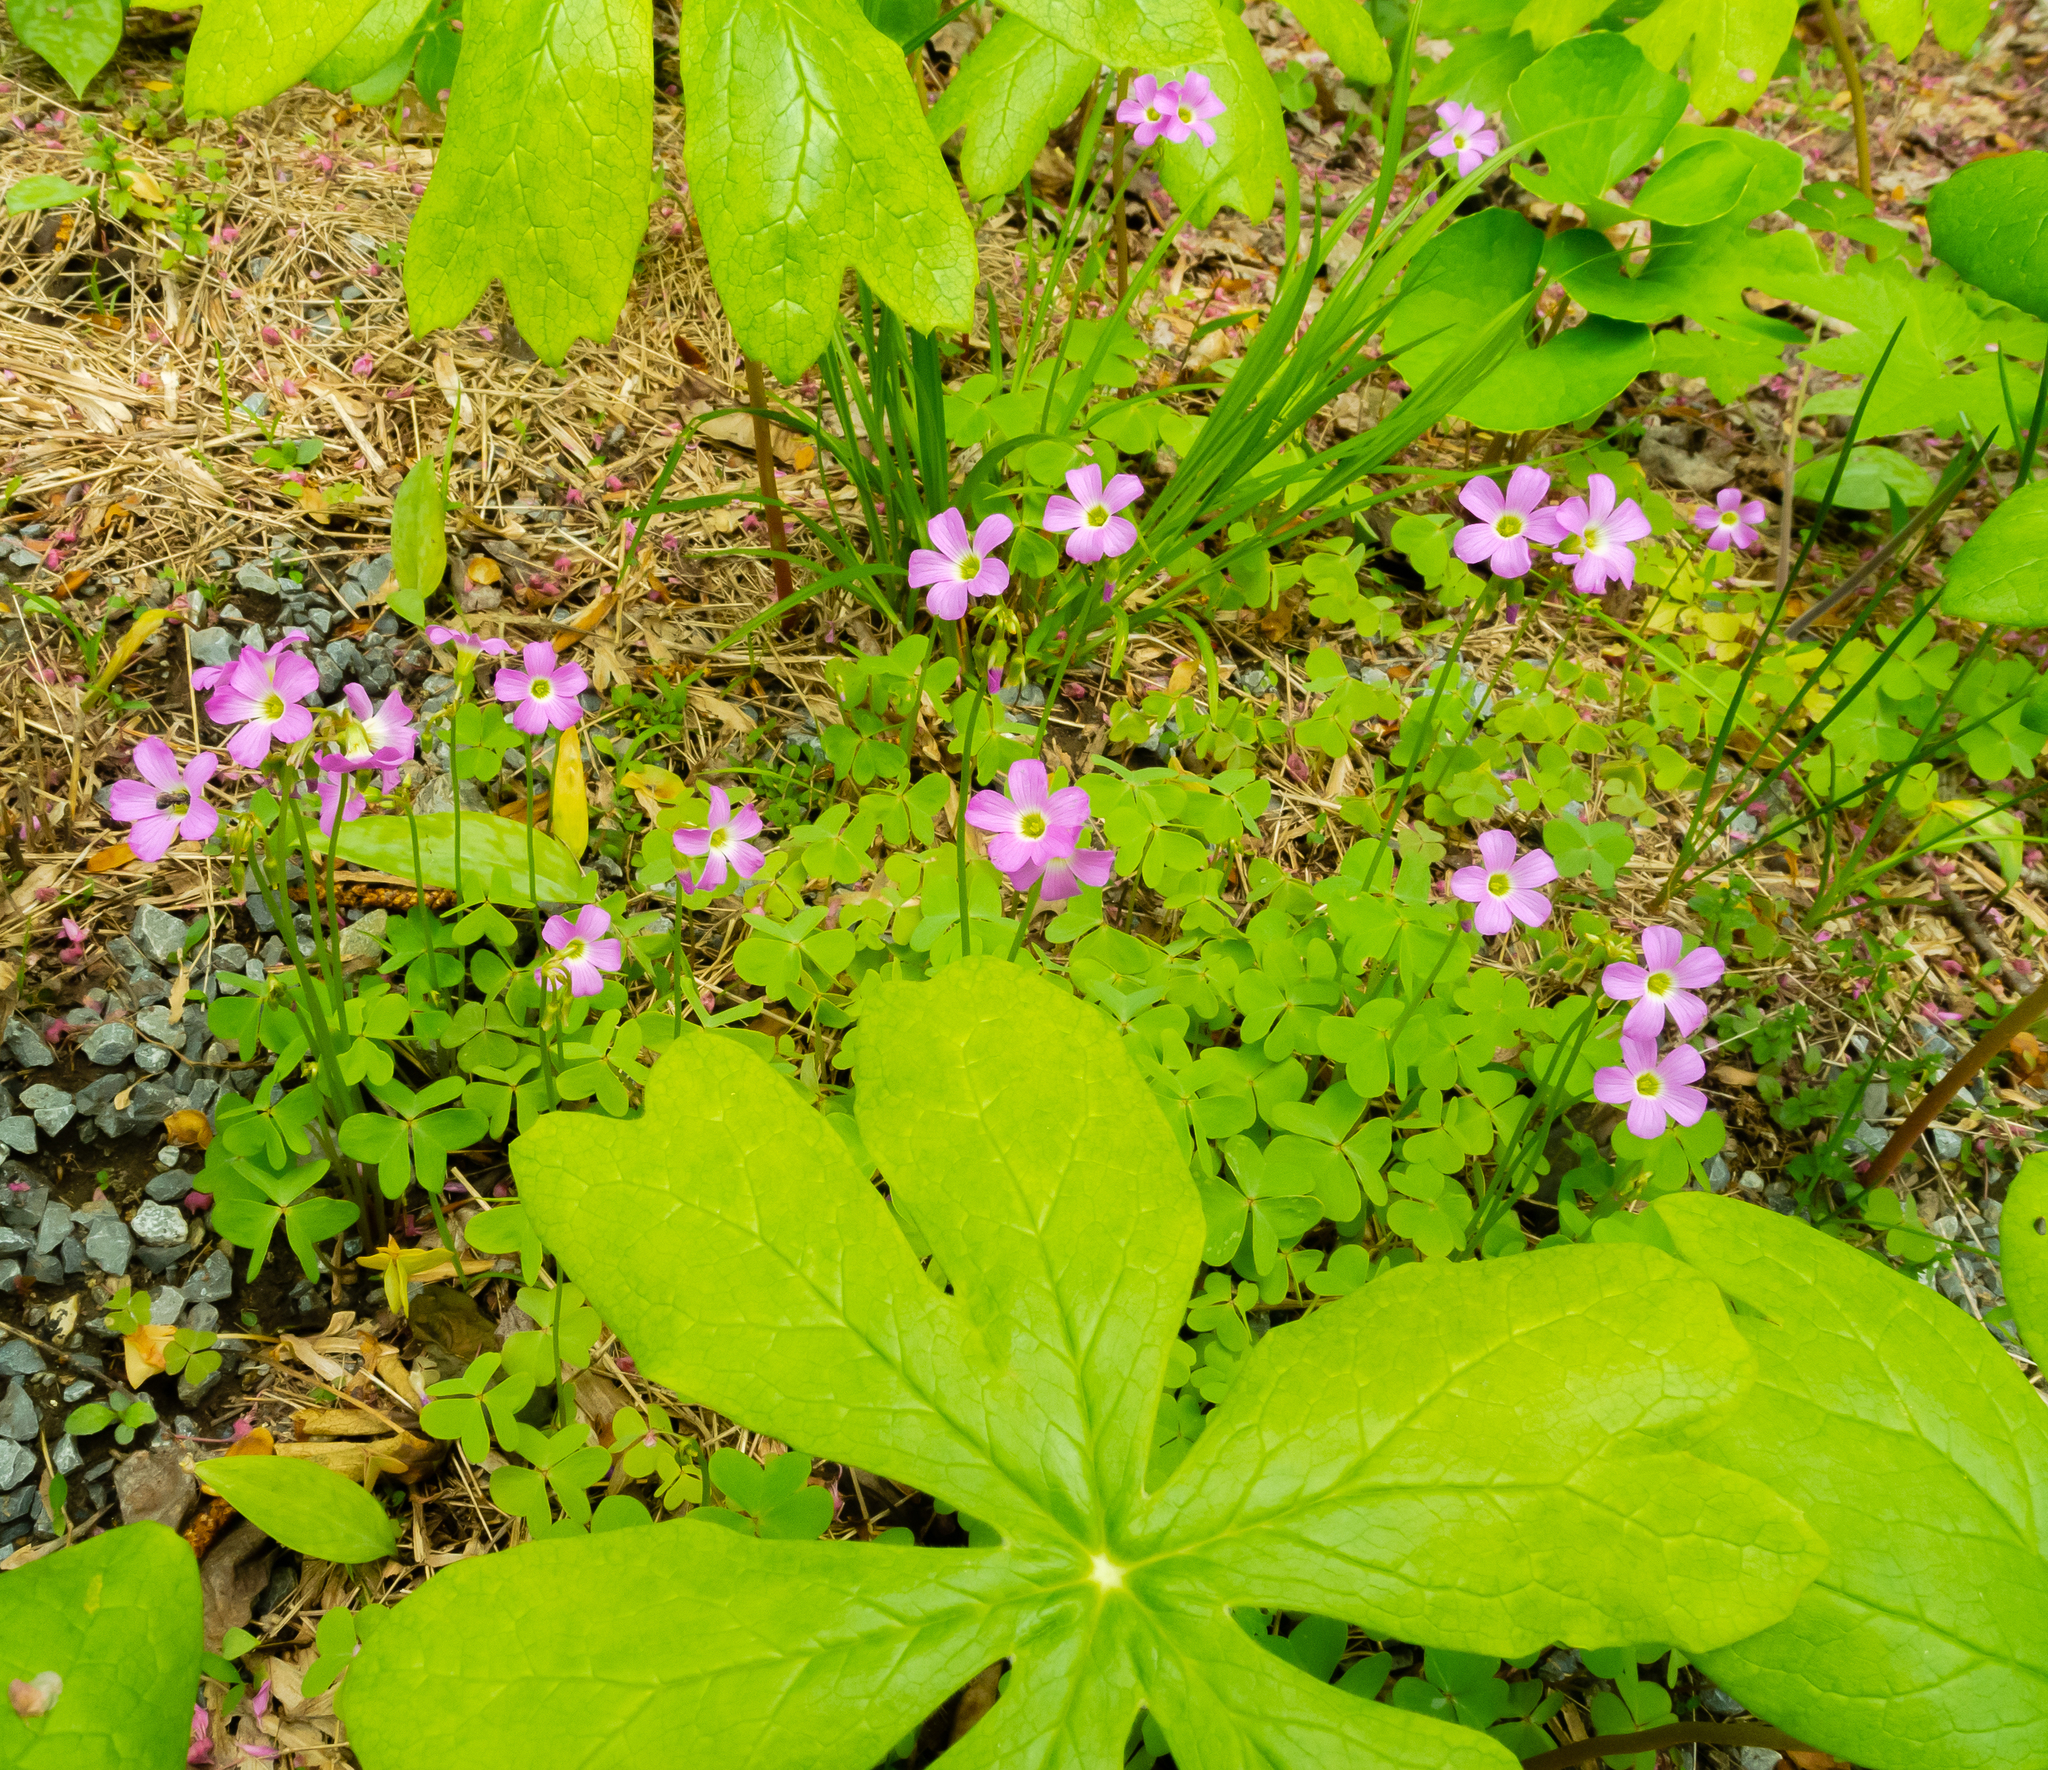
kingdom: Plantae
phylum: Tracheophyta
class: Magnoliopsida
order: Oxalidales
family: Oxalidaceae
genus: Oxalis
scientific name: Oxalis violacea
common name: Violet wood-sorrel
